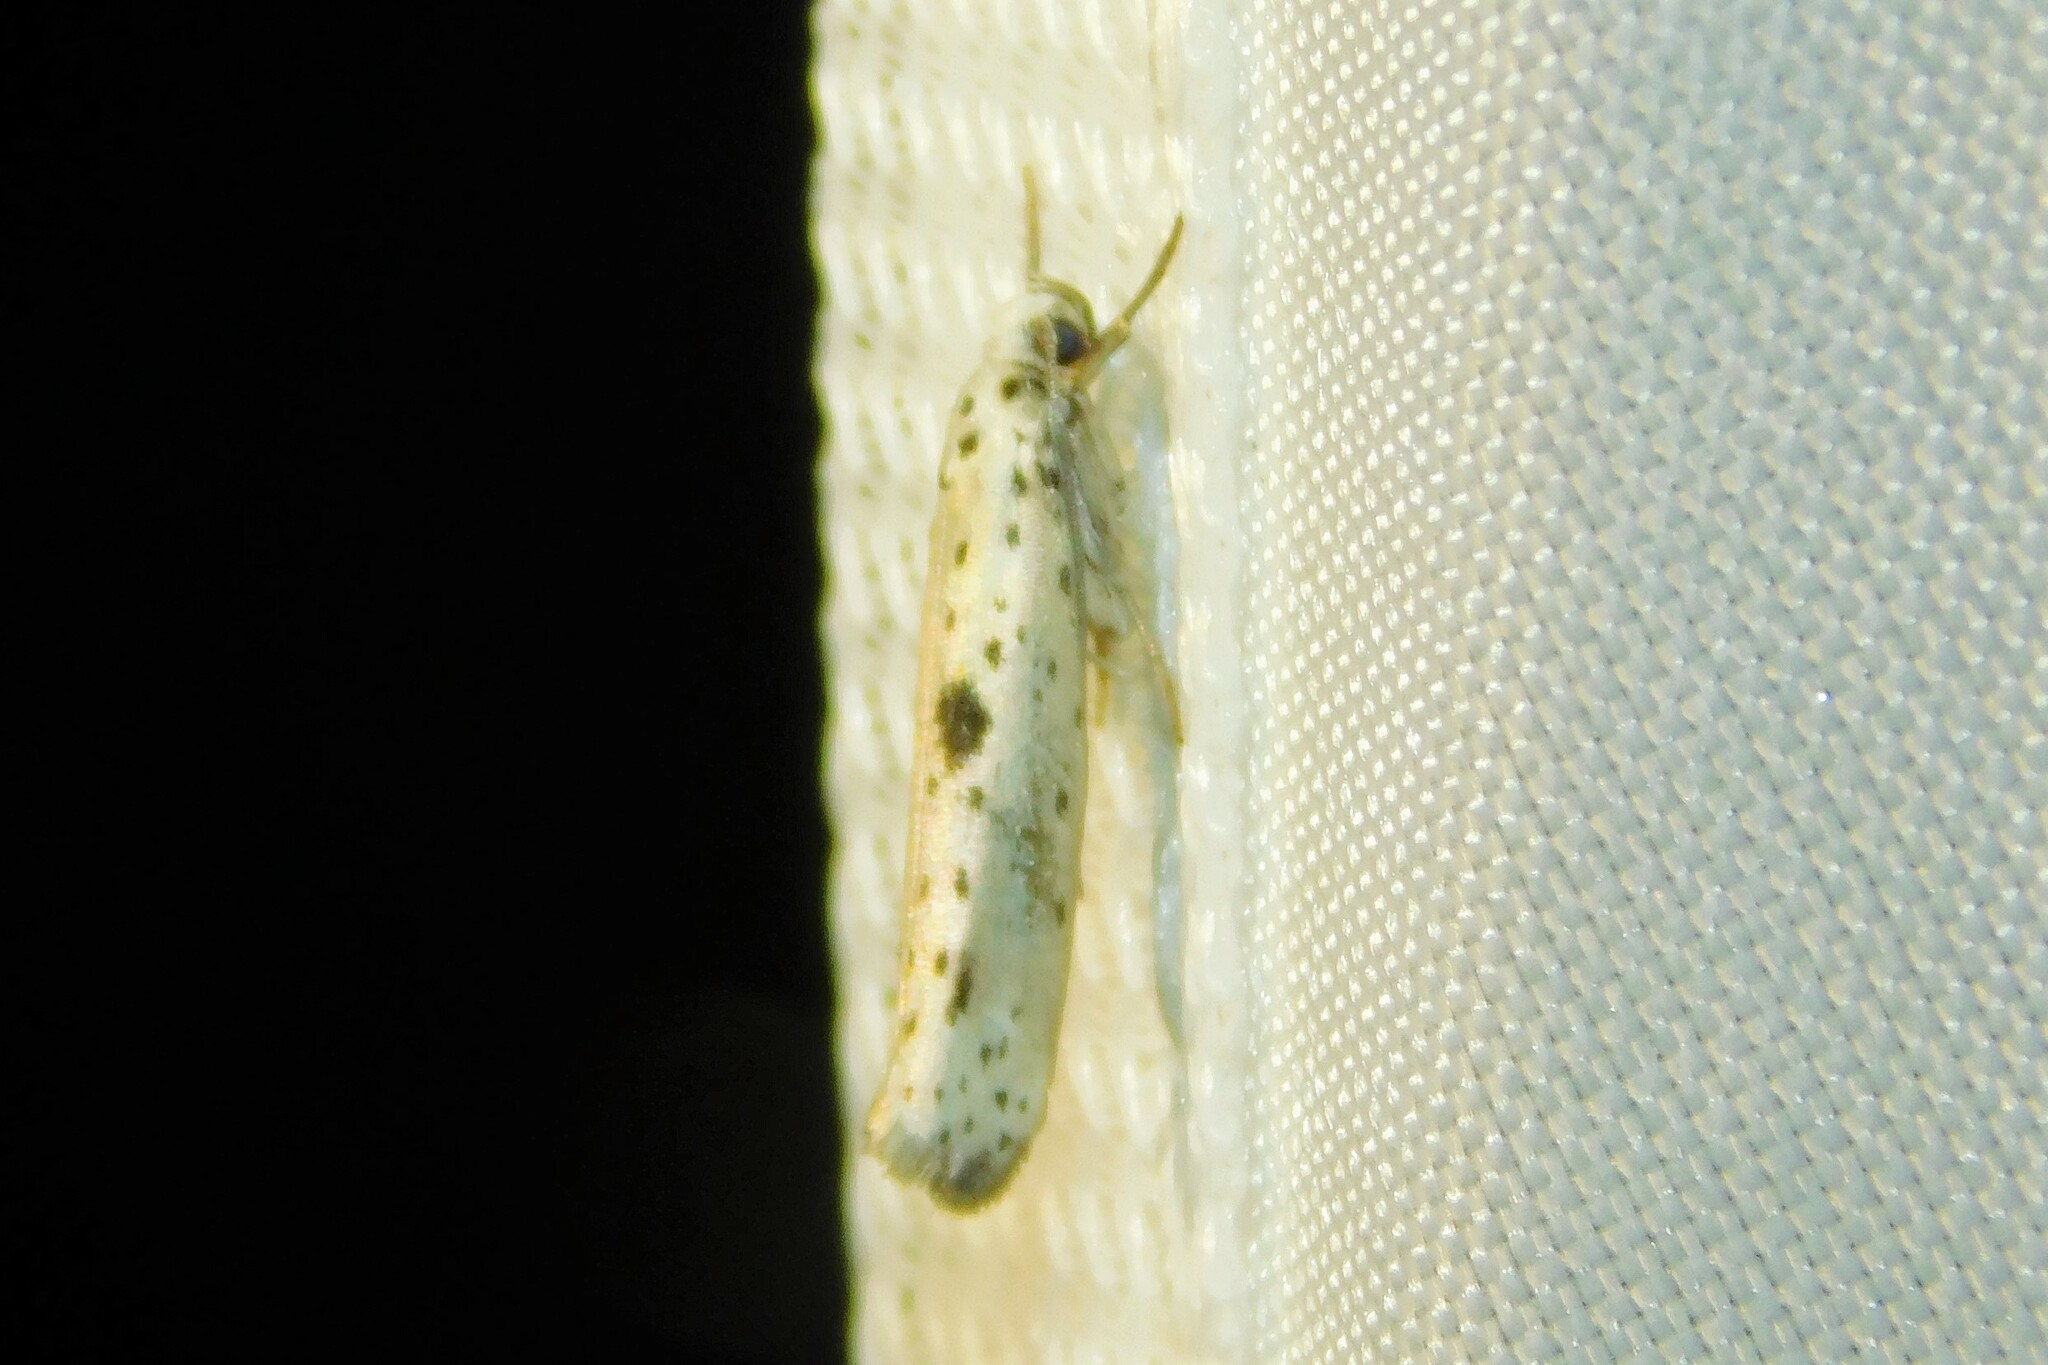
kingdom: Animalia
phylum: Arthropoda
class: Insecta
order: Lepidoptera
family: Yponomeutidae
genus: Yponomeuta
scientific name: Yponomeuta plumbella
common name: Black-tipped ermine
